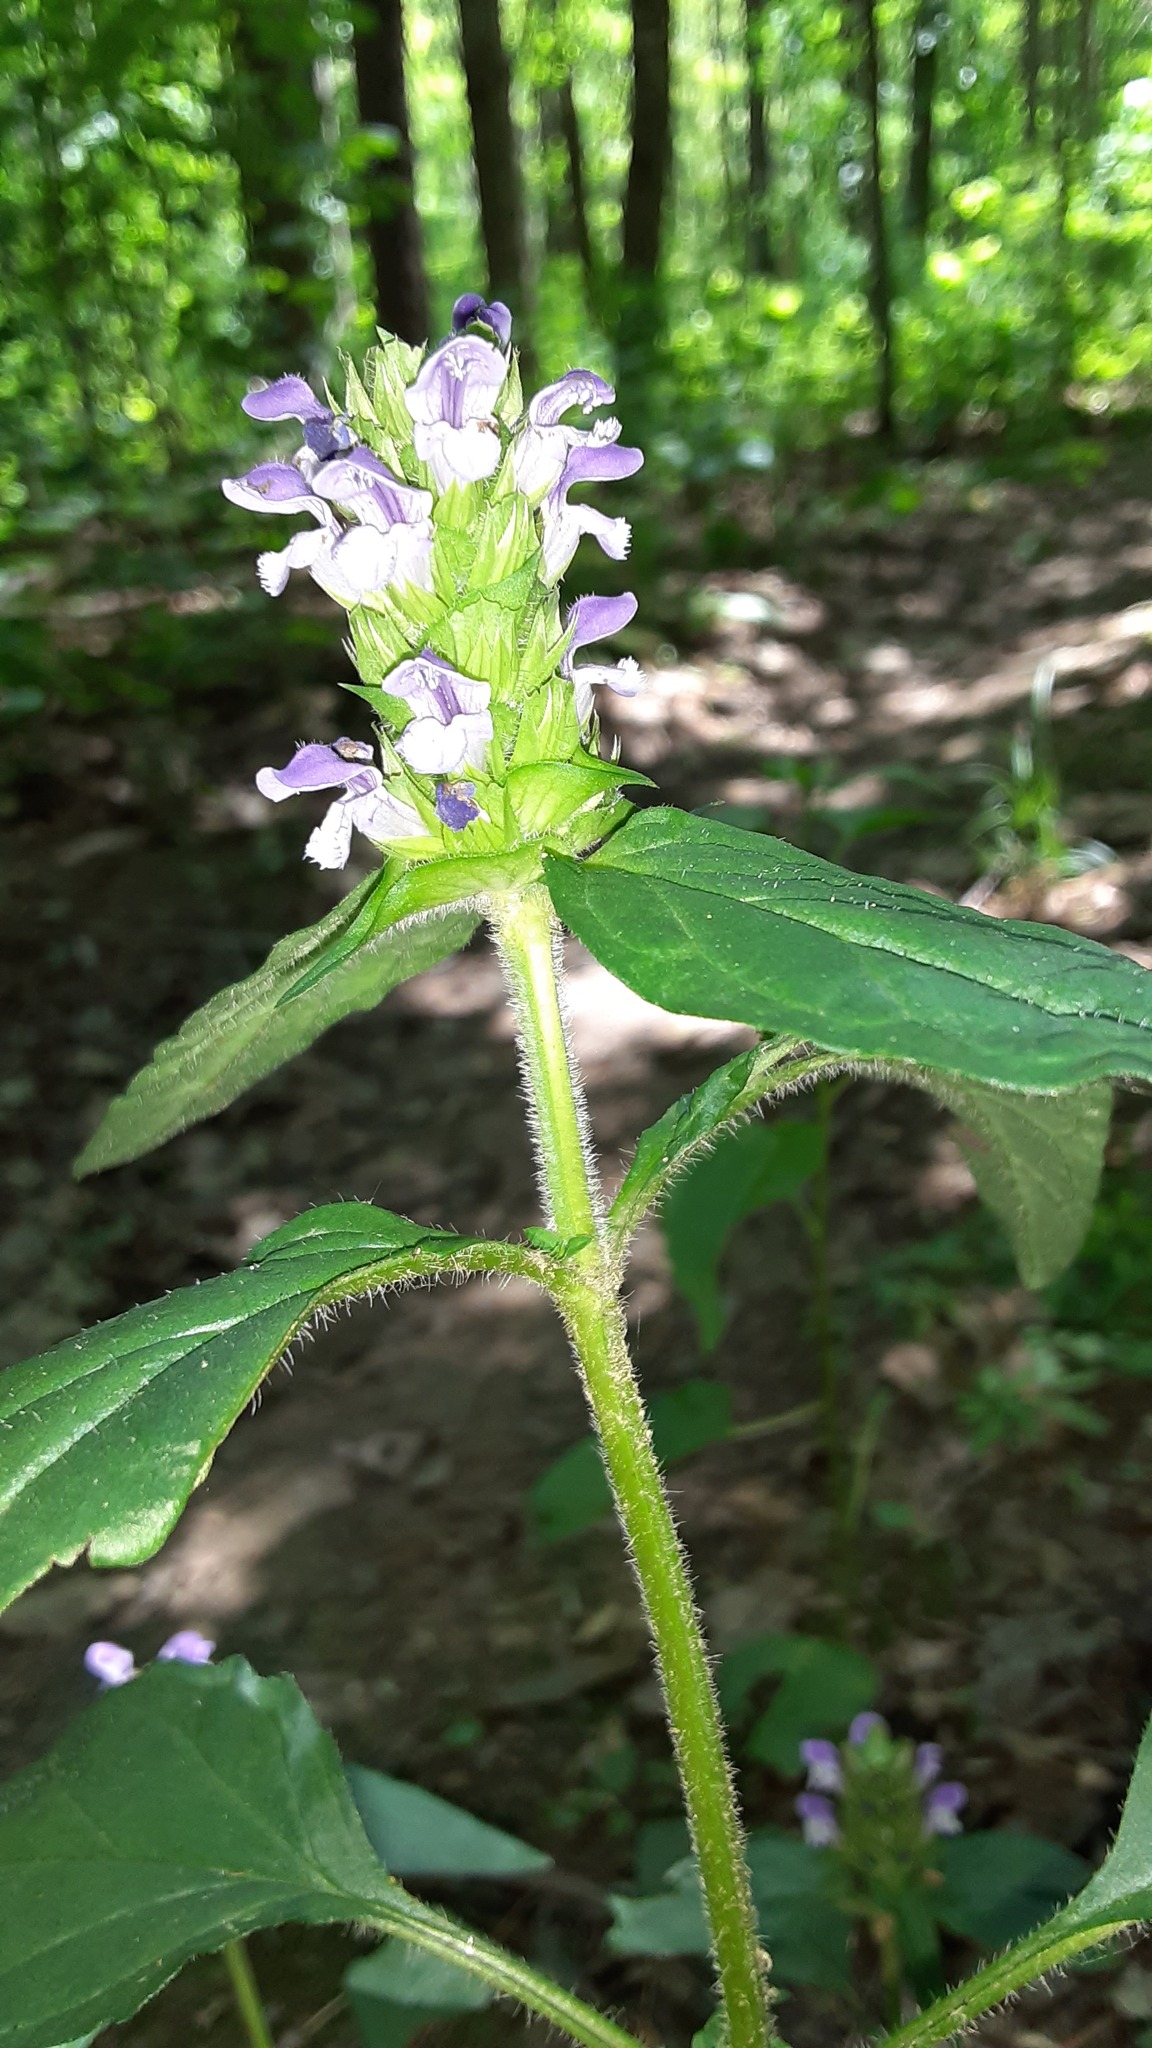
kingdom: Plantae
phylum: Tracheophyta
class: Magnoliopsida
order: Lamiales
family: Lamiaceae
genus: Prunella
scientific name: Prunella vulgaris
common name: Heal-all
